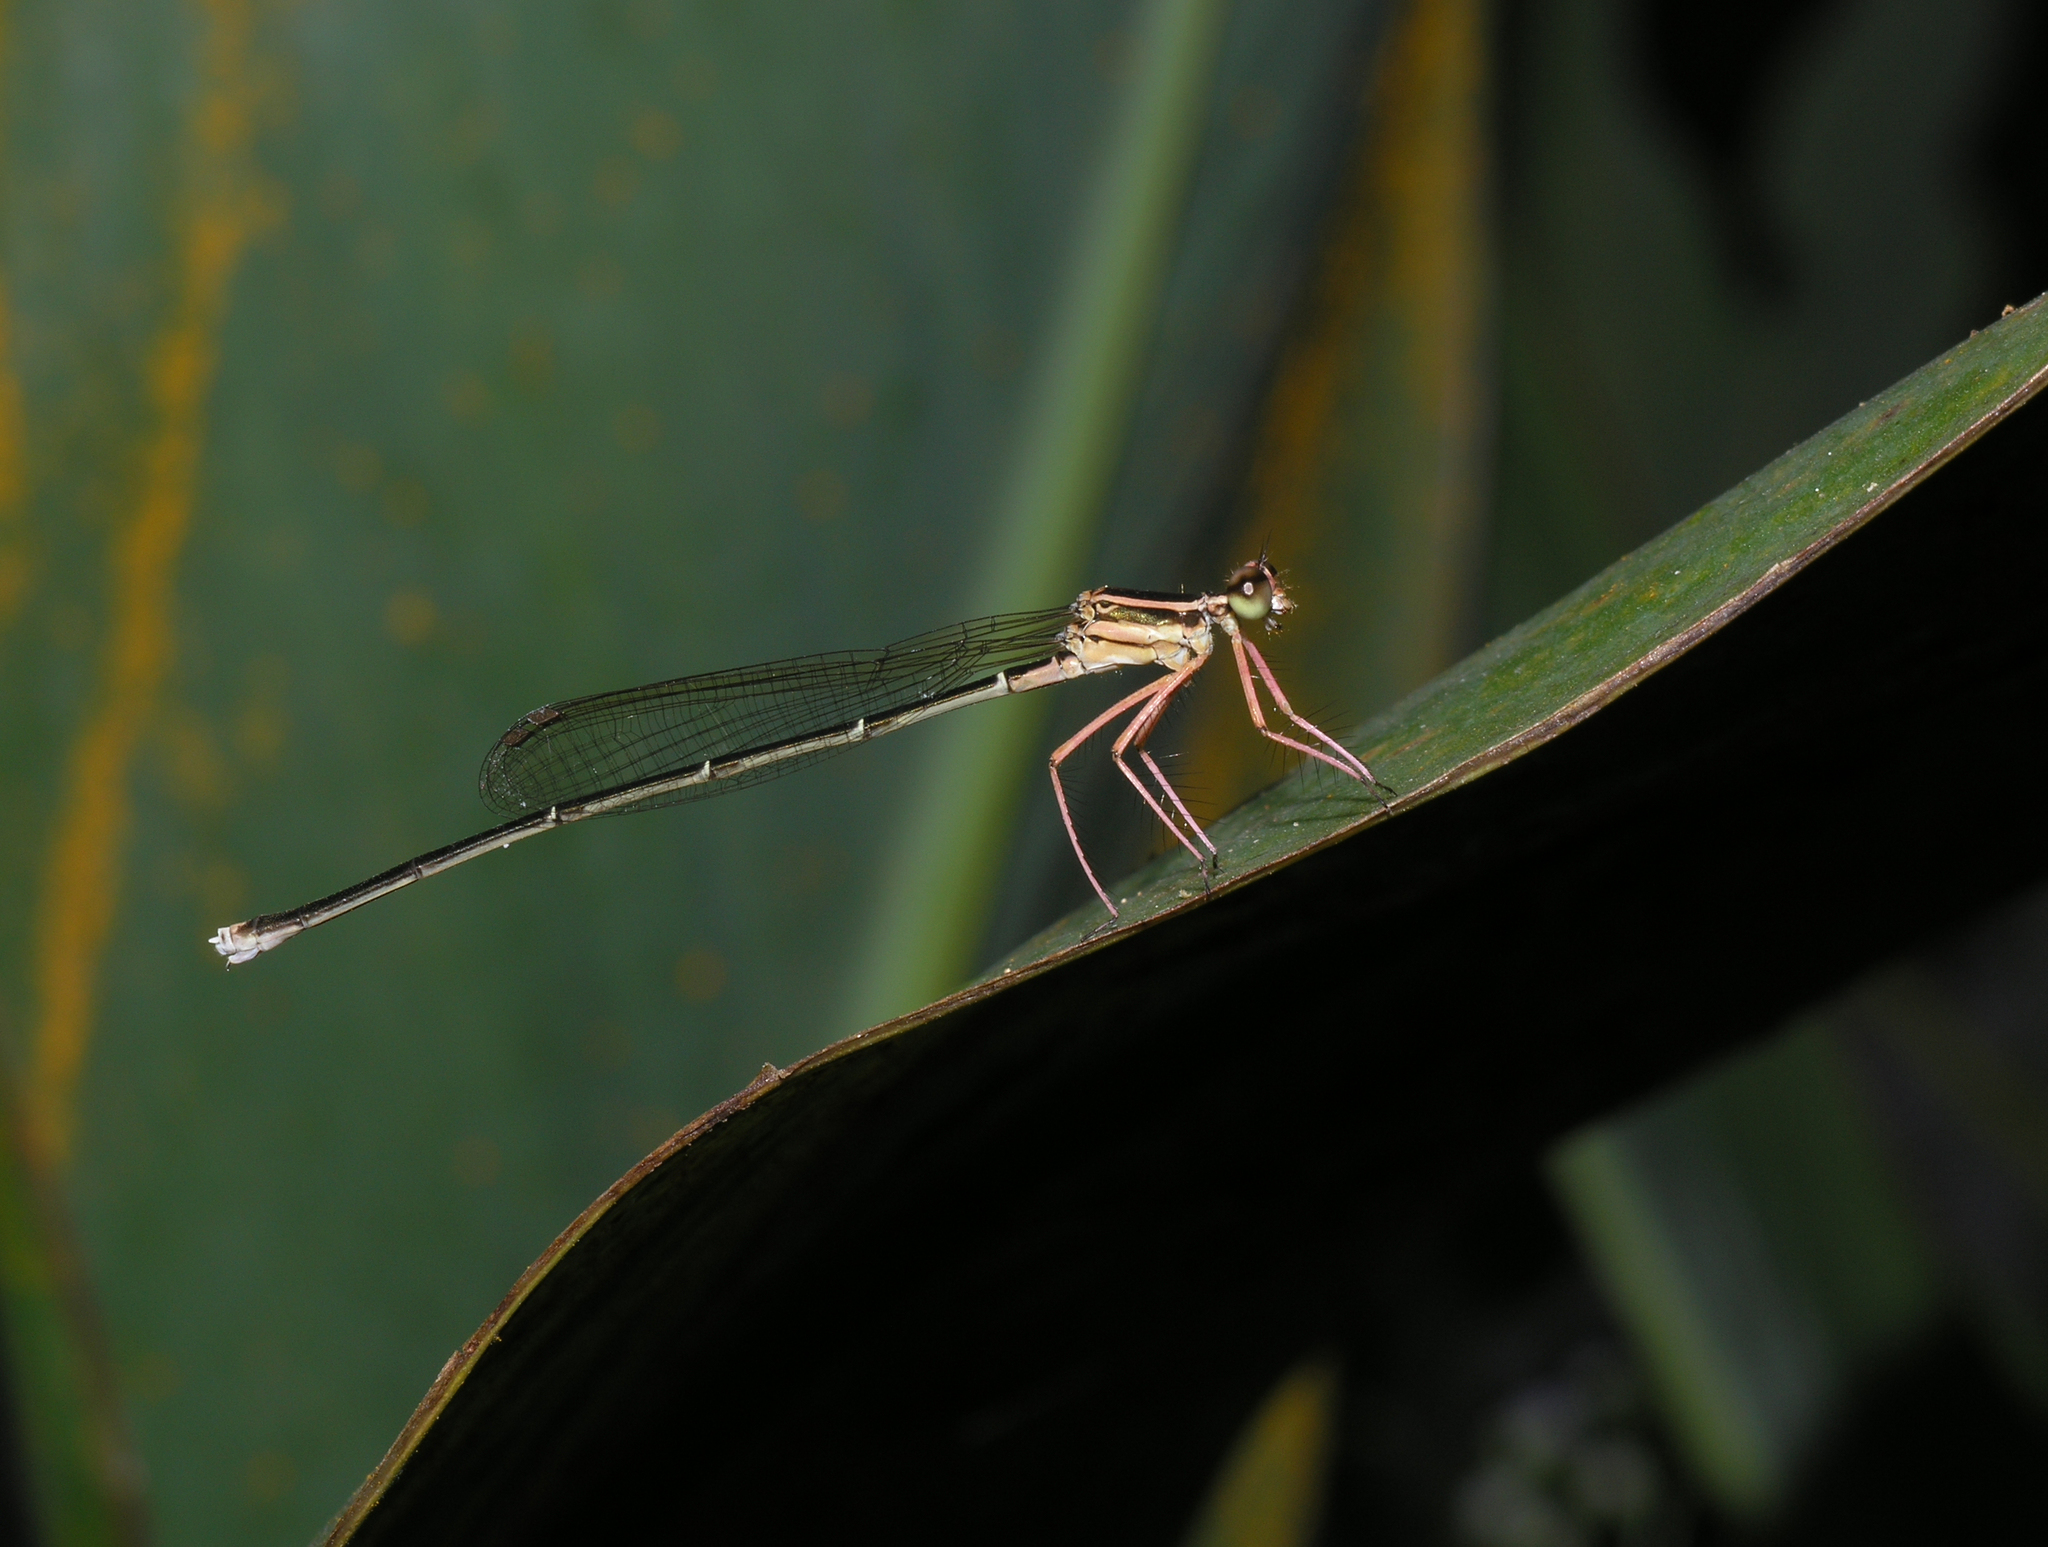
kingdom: Animalia
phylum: Arthropoda
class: Insecta
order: Odonata
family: Platycnemididae
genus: Pseudocopera
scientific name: Pseudocopera ciliata
